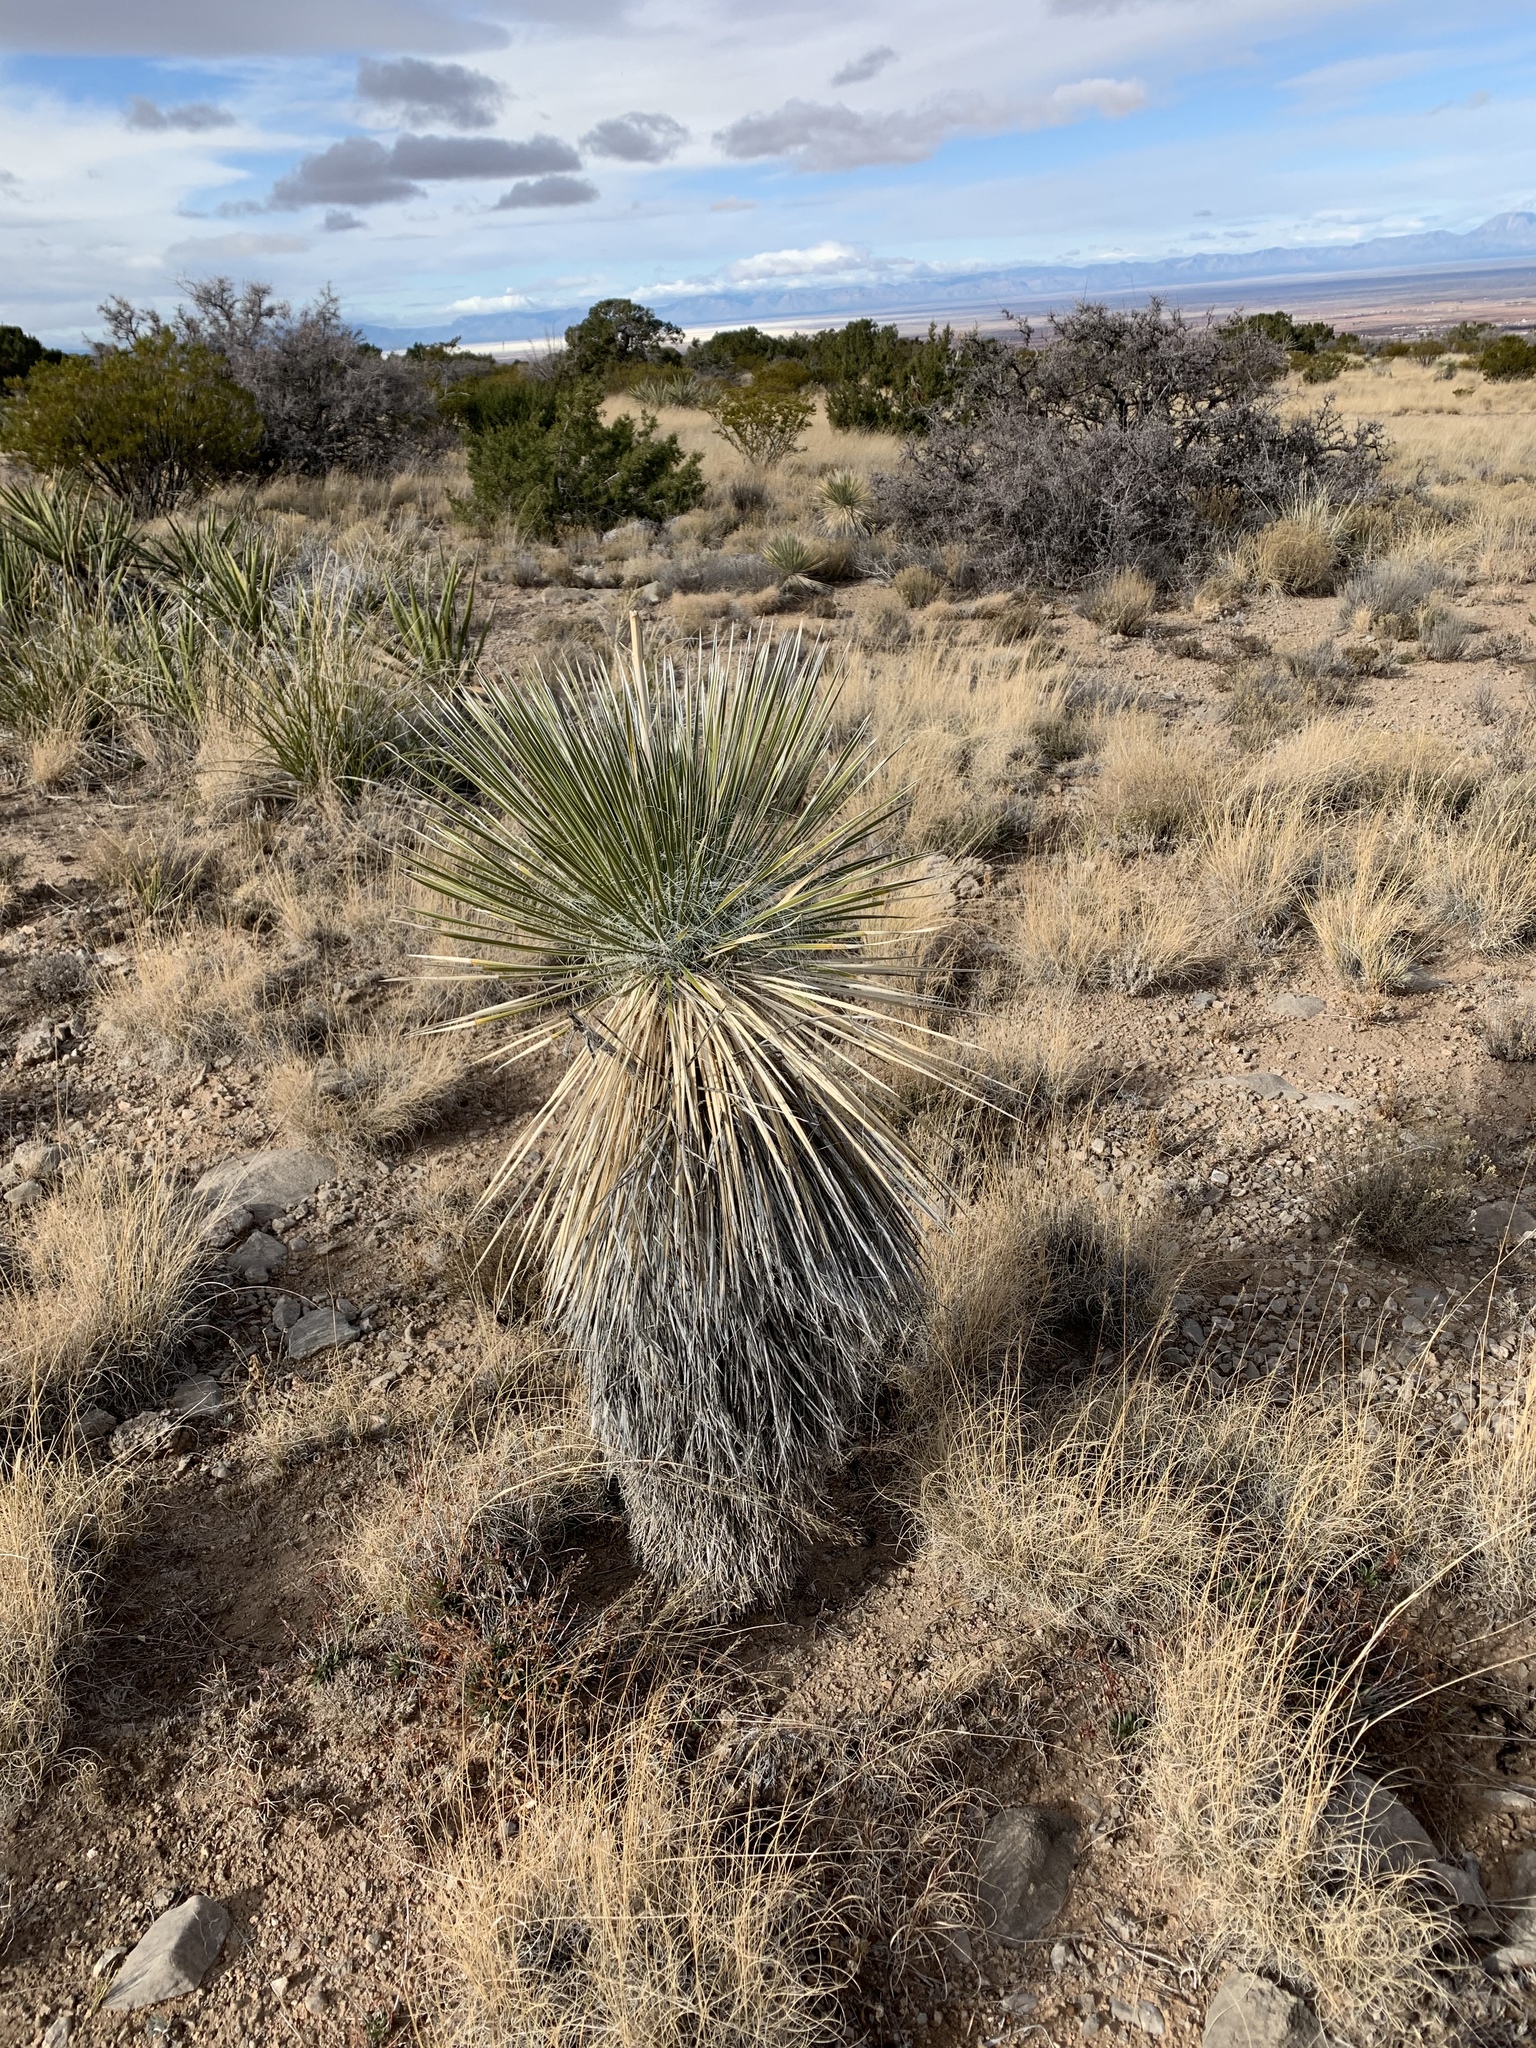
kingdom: Plantae
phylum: Tracheophyta
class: Liliopsida
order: Asparagales
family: Asparagaceae
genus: Yucca
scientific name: Yucca elata
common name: Palmella
